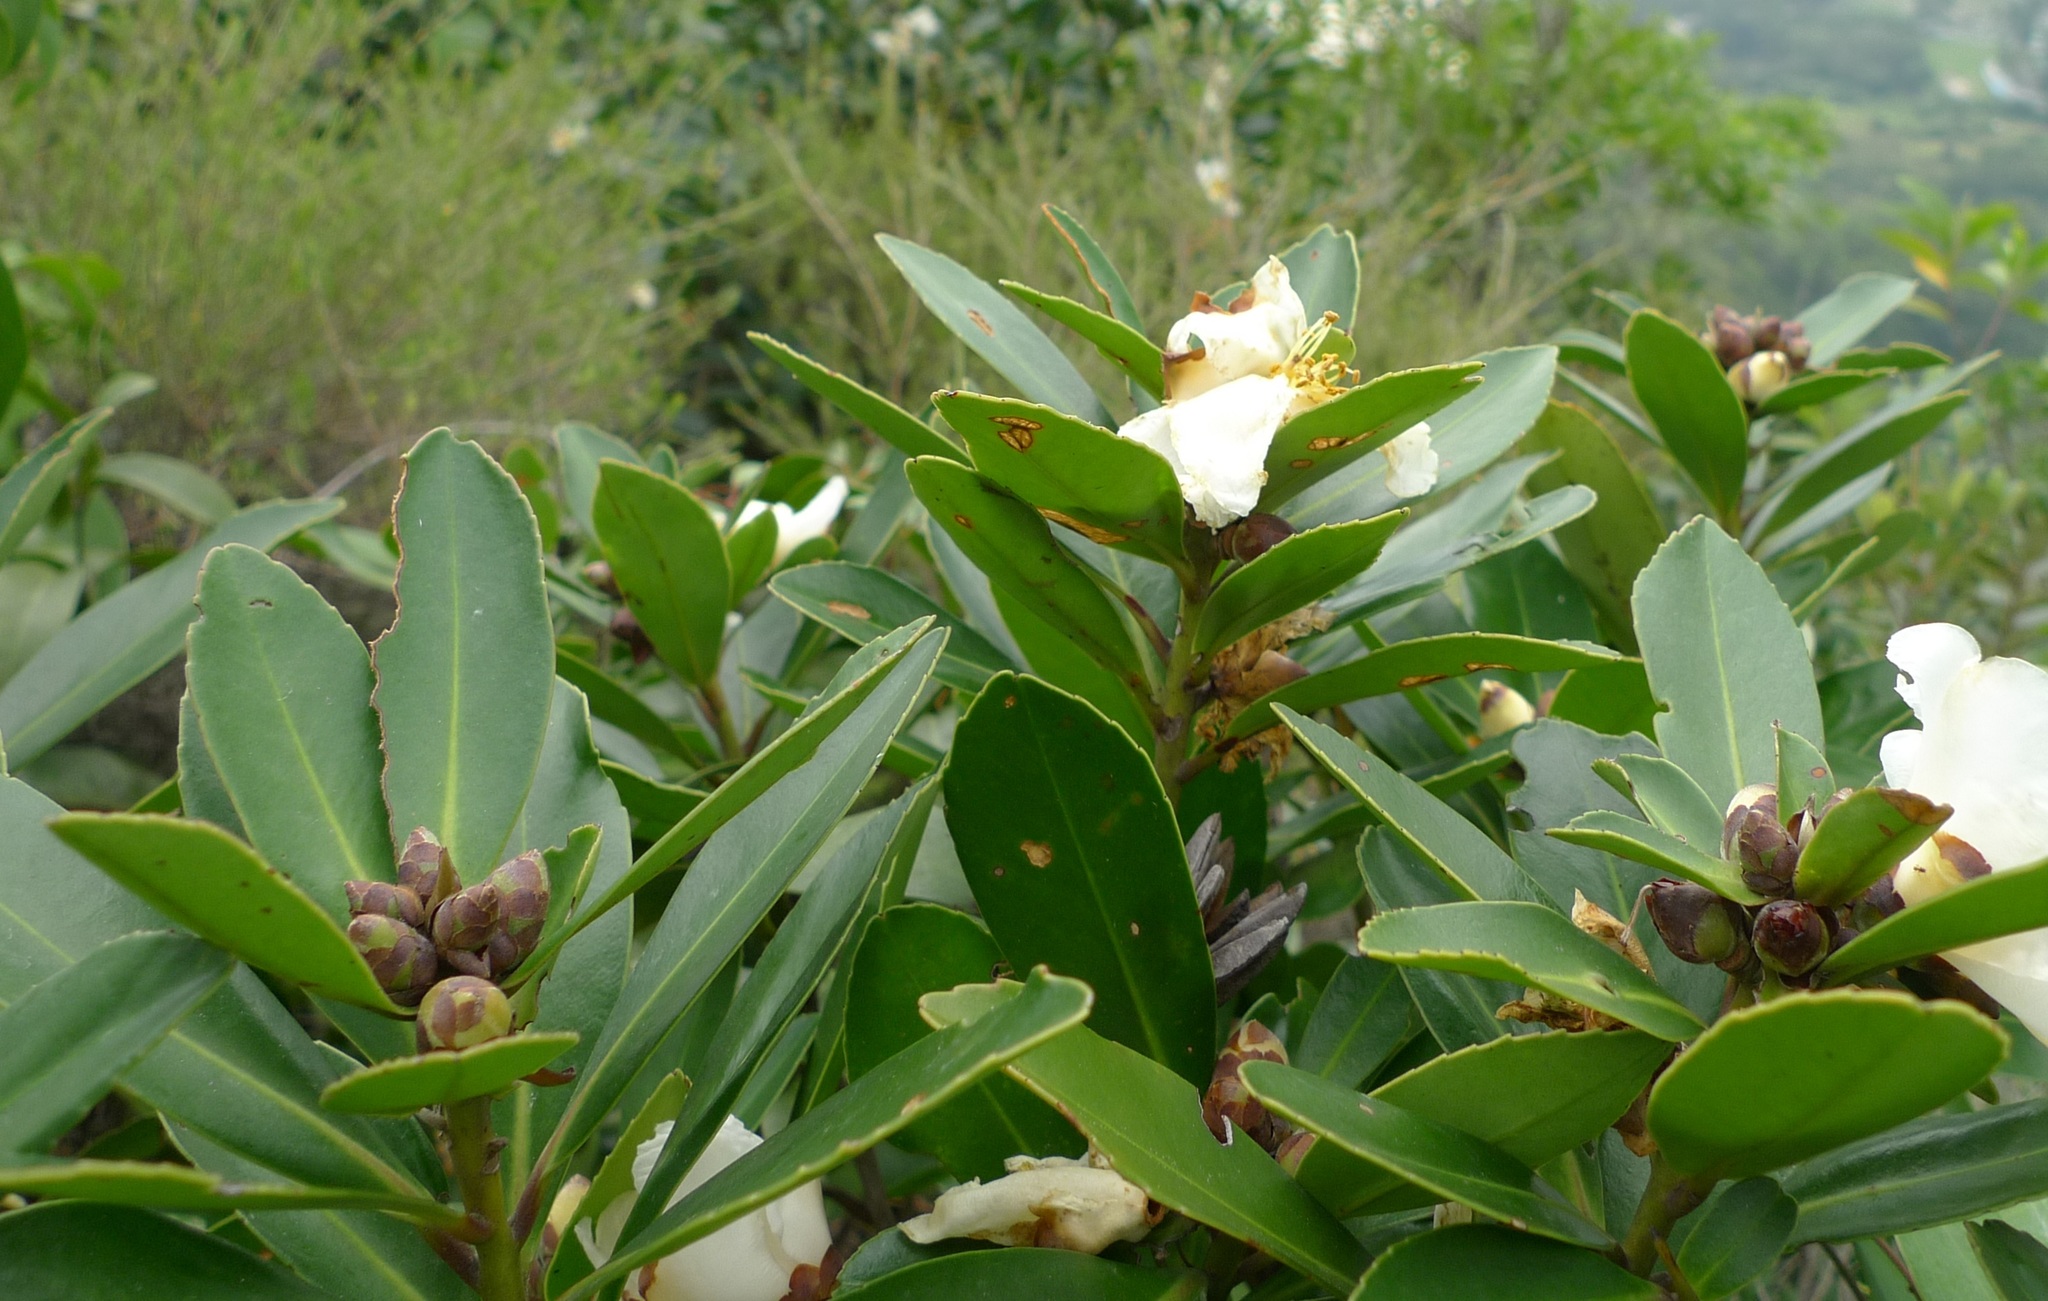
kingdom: Plantae
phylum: Tracheophyta
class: Magnoliopsida
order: Ericales
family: Theaceae
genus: Polyspora
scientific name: Polyspora axillaris
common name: Fried egg tree
